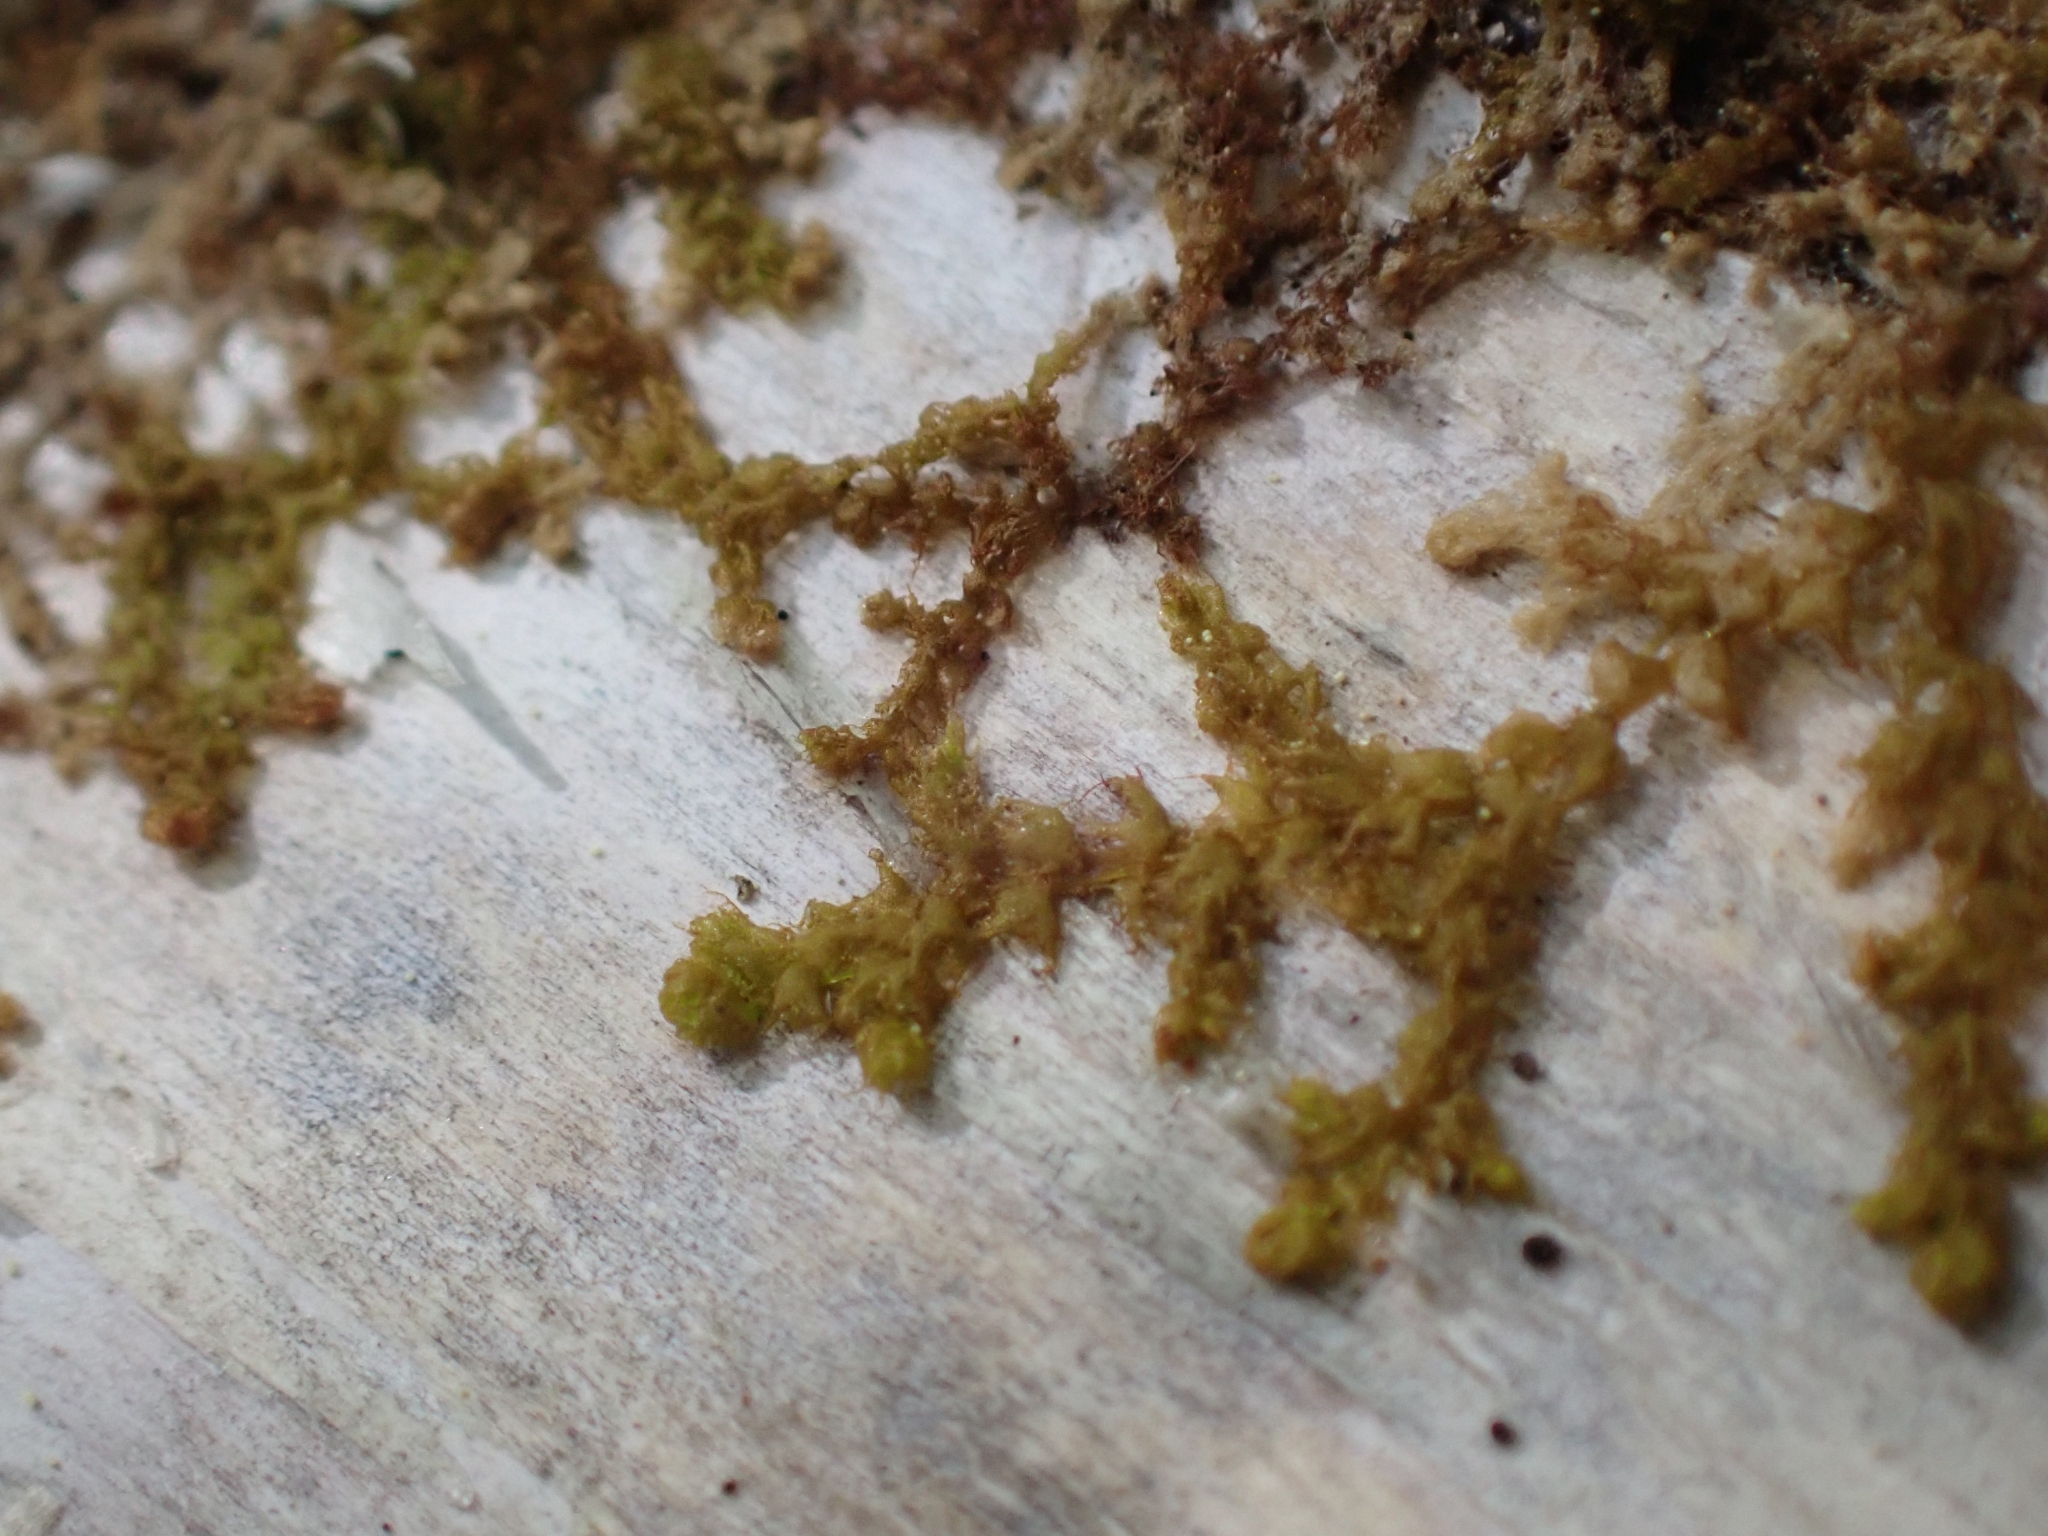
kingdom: Plantae
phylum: Marchantiophyta
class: Jungermanniopsida
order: Ptilidiales
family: Ptilidiaceae
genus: Ptilidium
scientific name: Ptilidium pulcherrimum
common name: Tree fringewort
